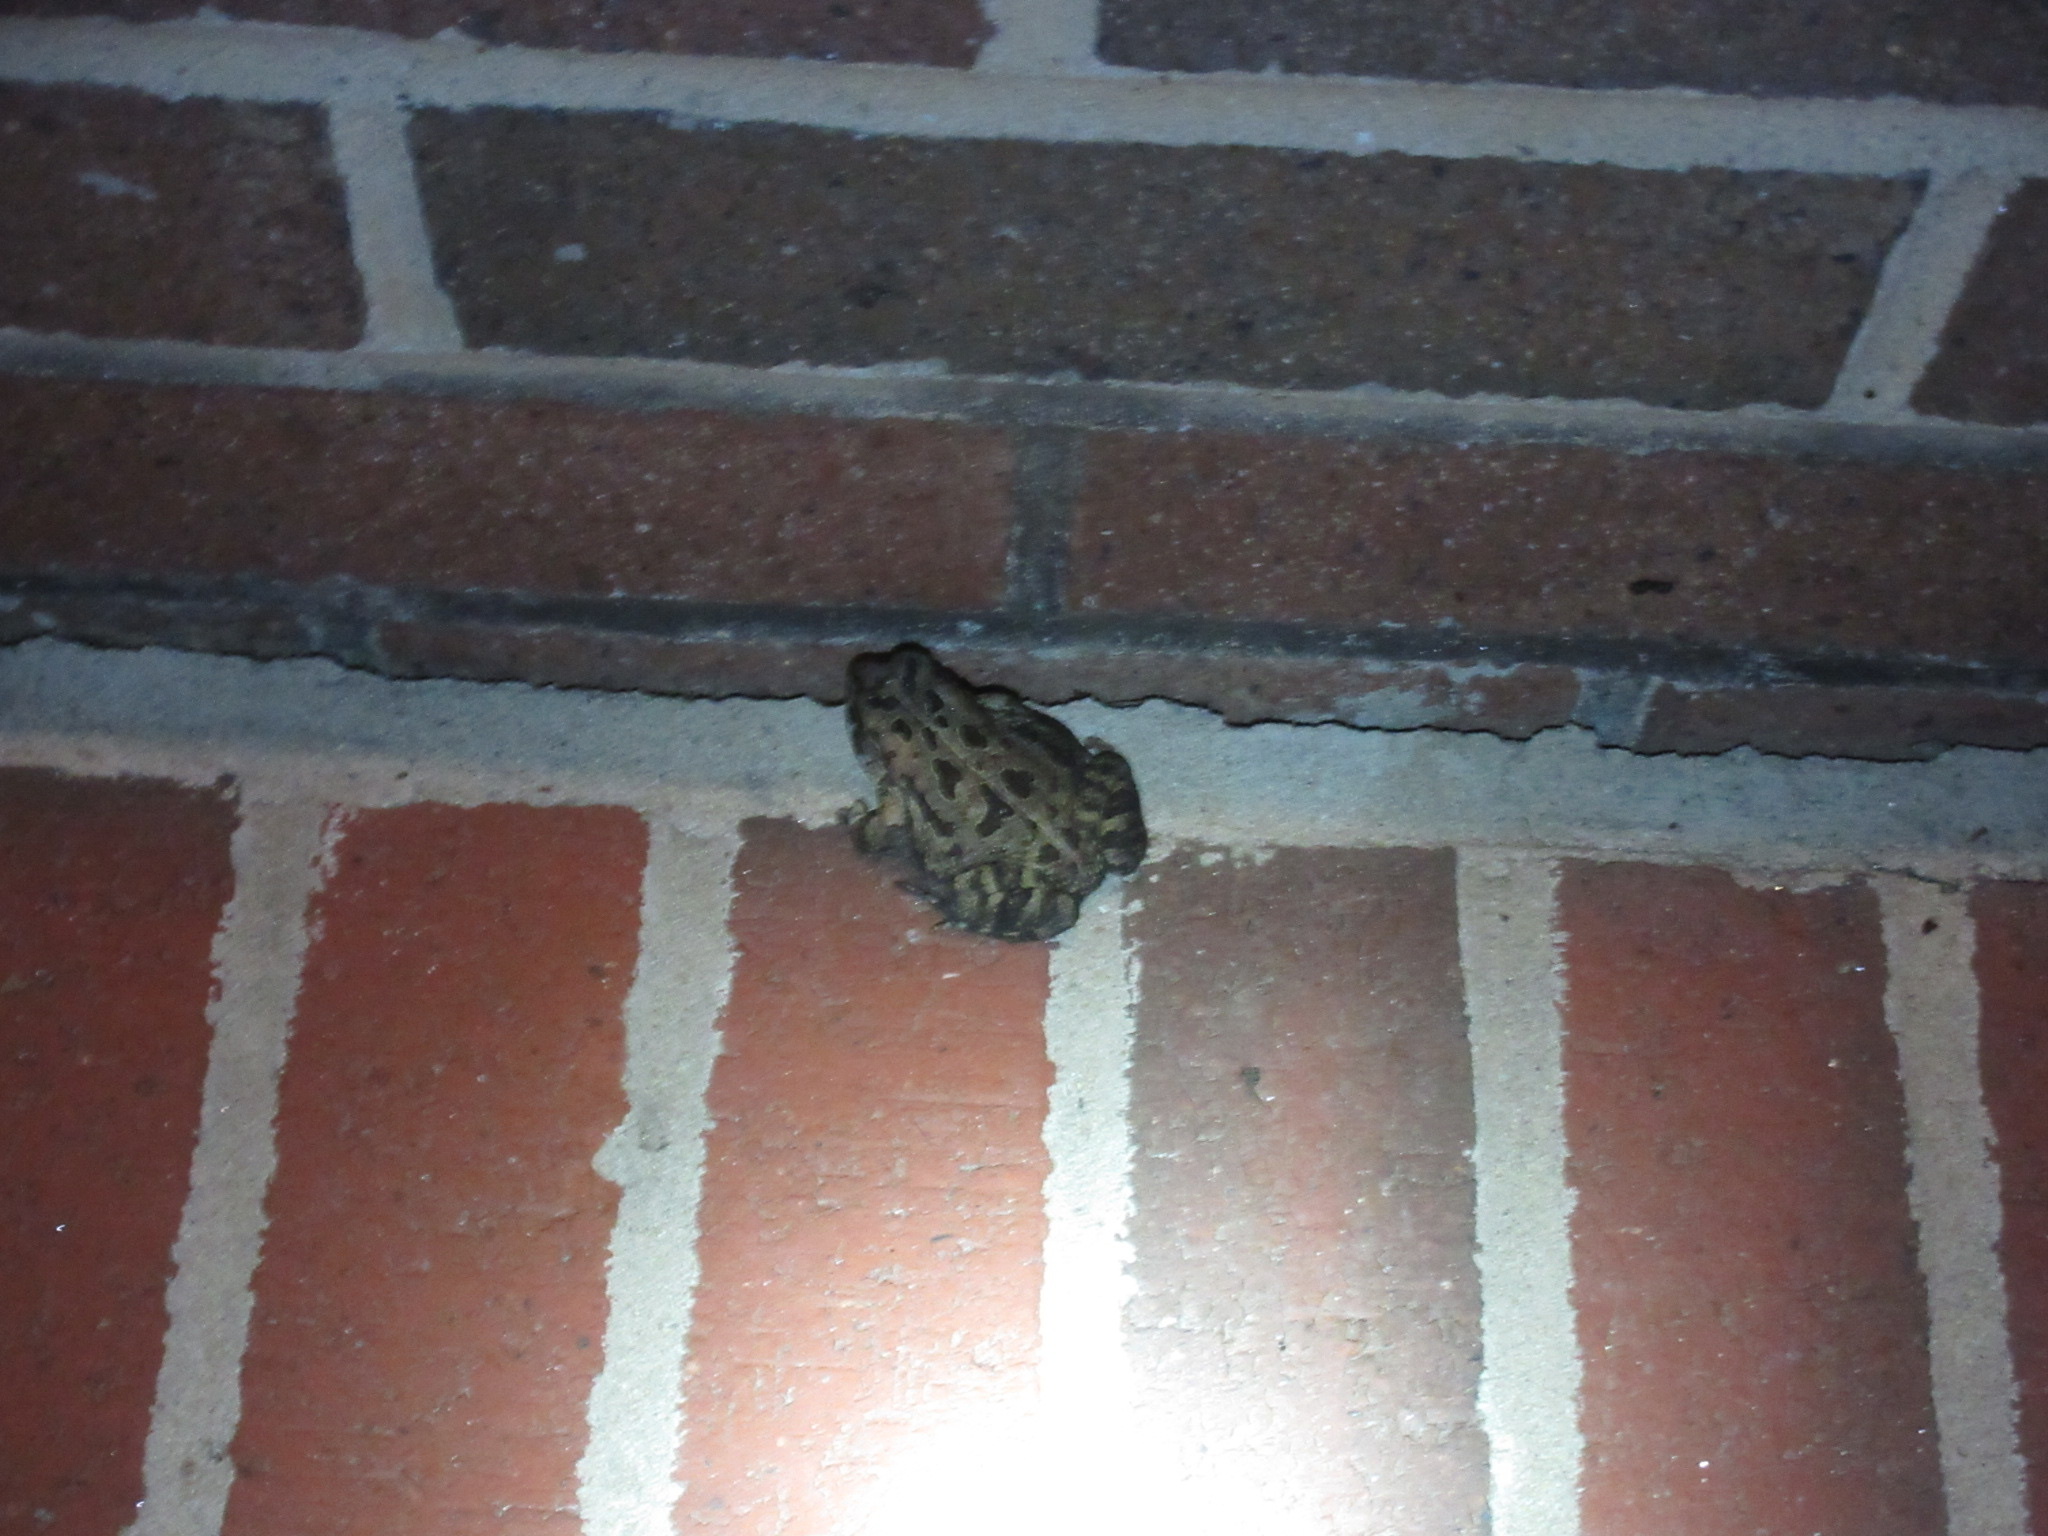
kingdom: Animalia
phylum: Chordata
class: Amphibia
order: Anura
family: Bufonidae
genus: Anaxyrus
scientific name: Anaxyrus fowleri
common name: Fowler's toad
